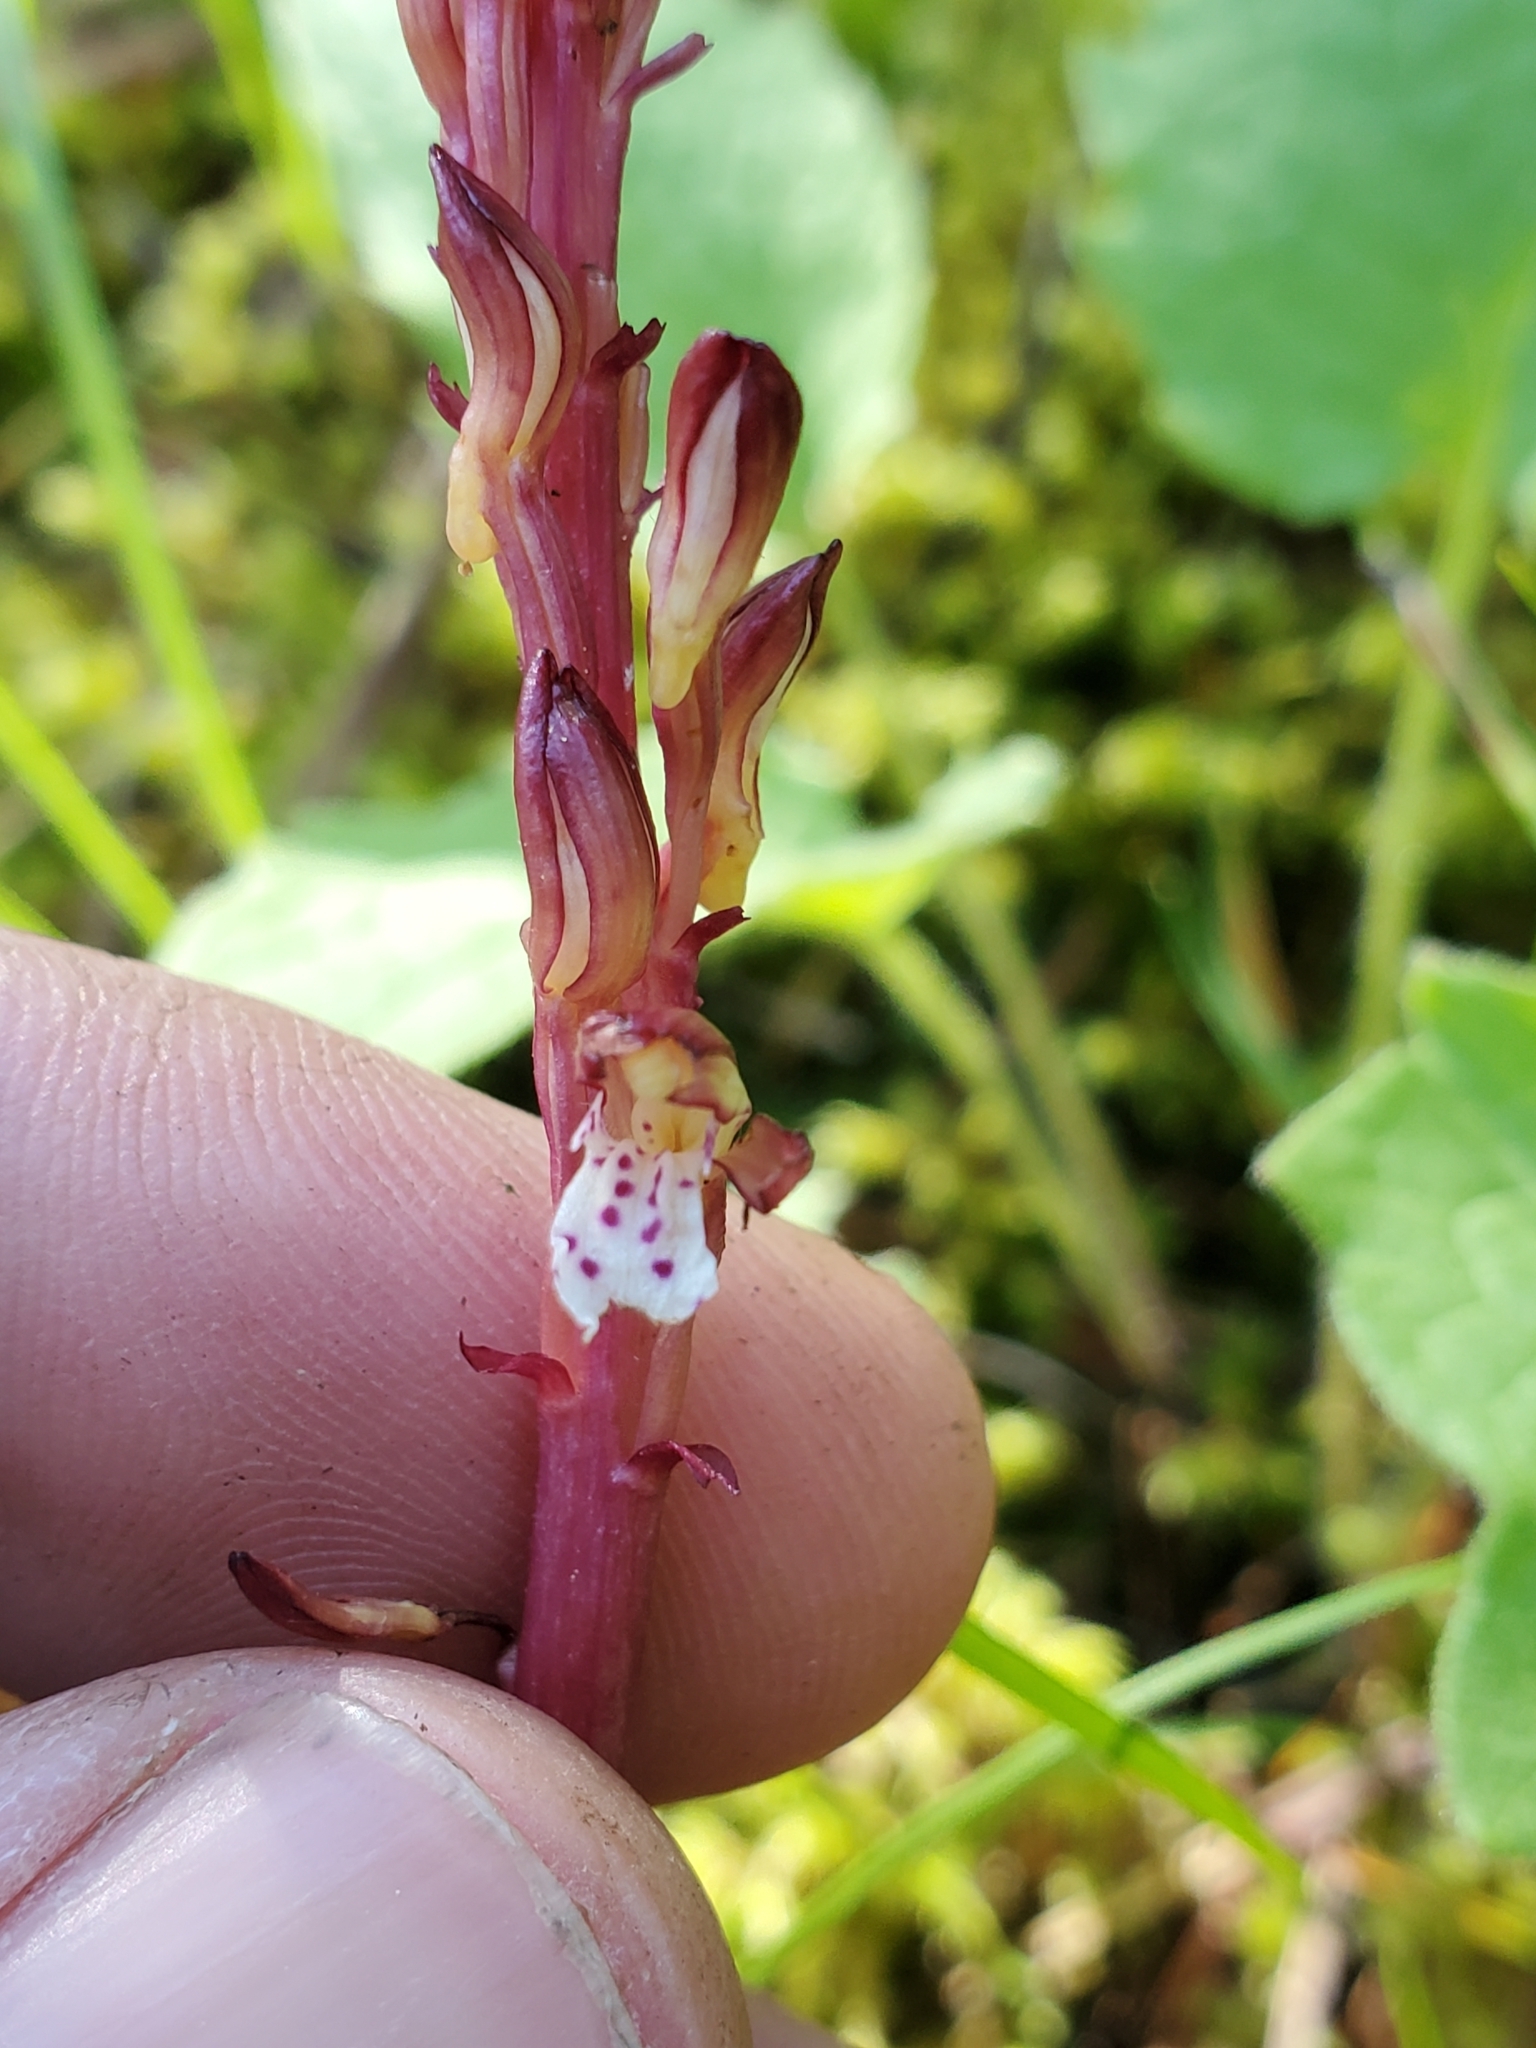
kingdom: Plantae
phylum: Tracheophyta
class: Liliopsida
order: Asparagales
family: Orchidaceae
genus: Corallorhiza
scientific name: Corallorhiza maculata
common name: Spotted coralroot
